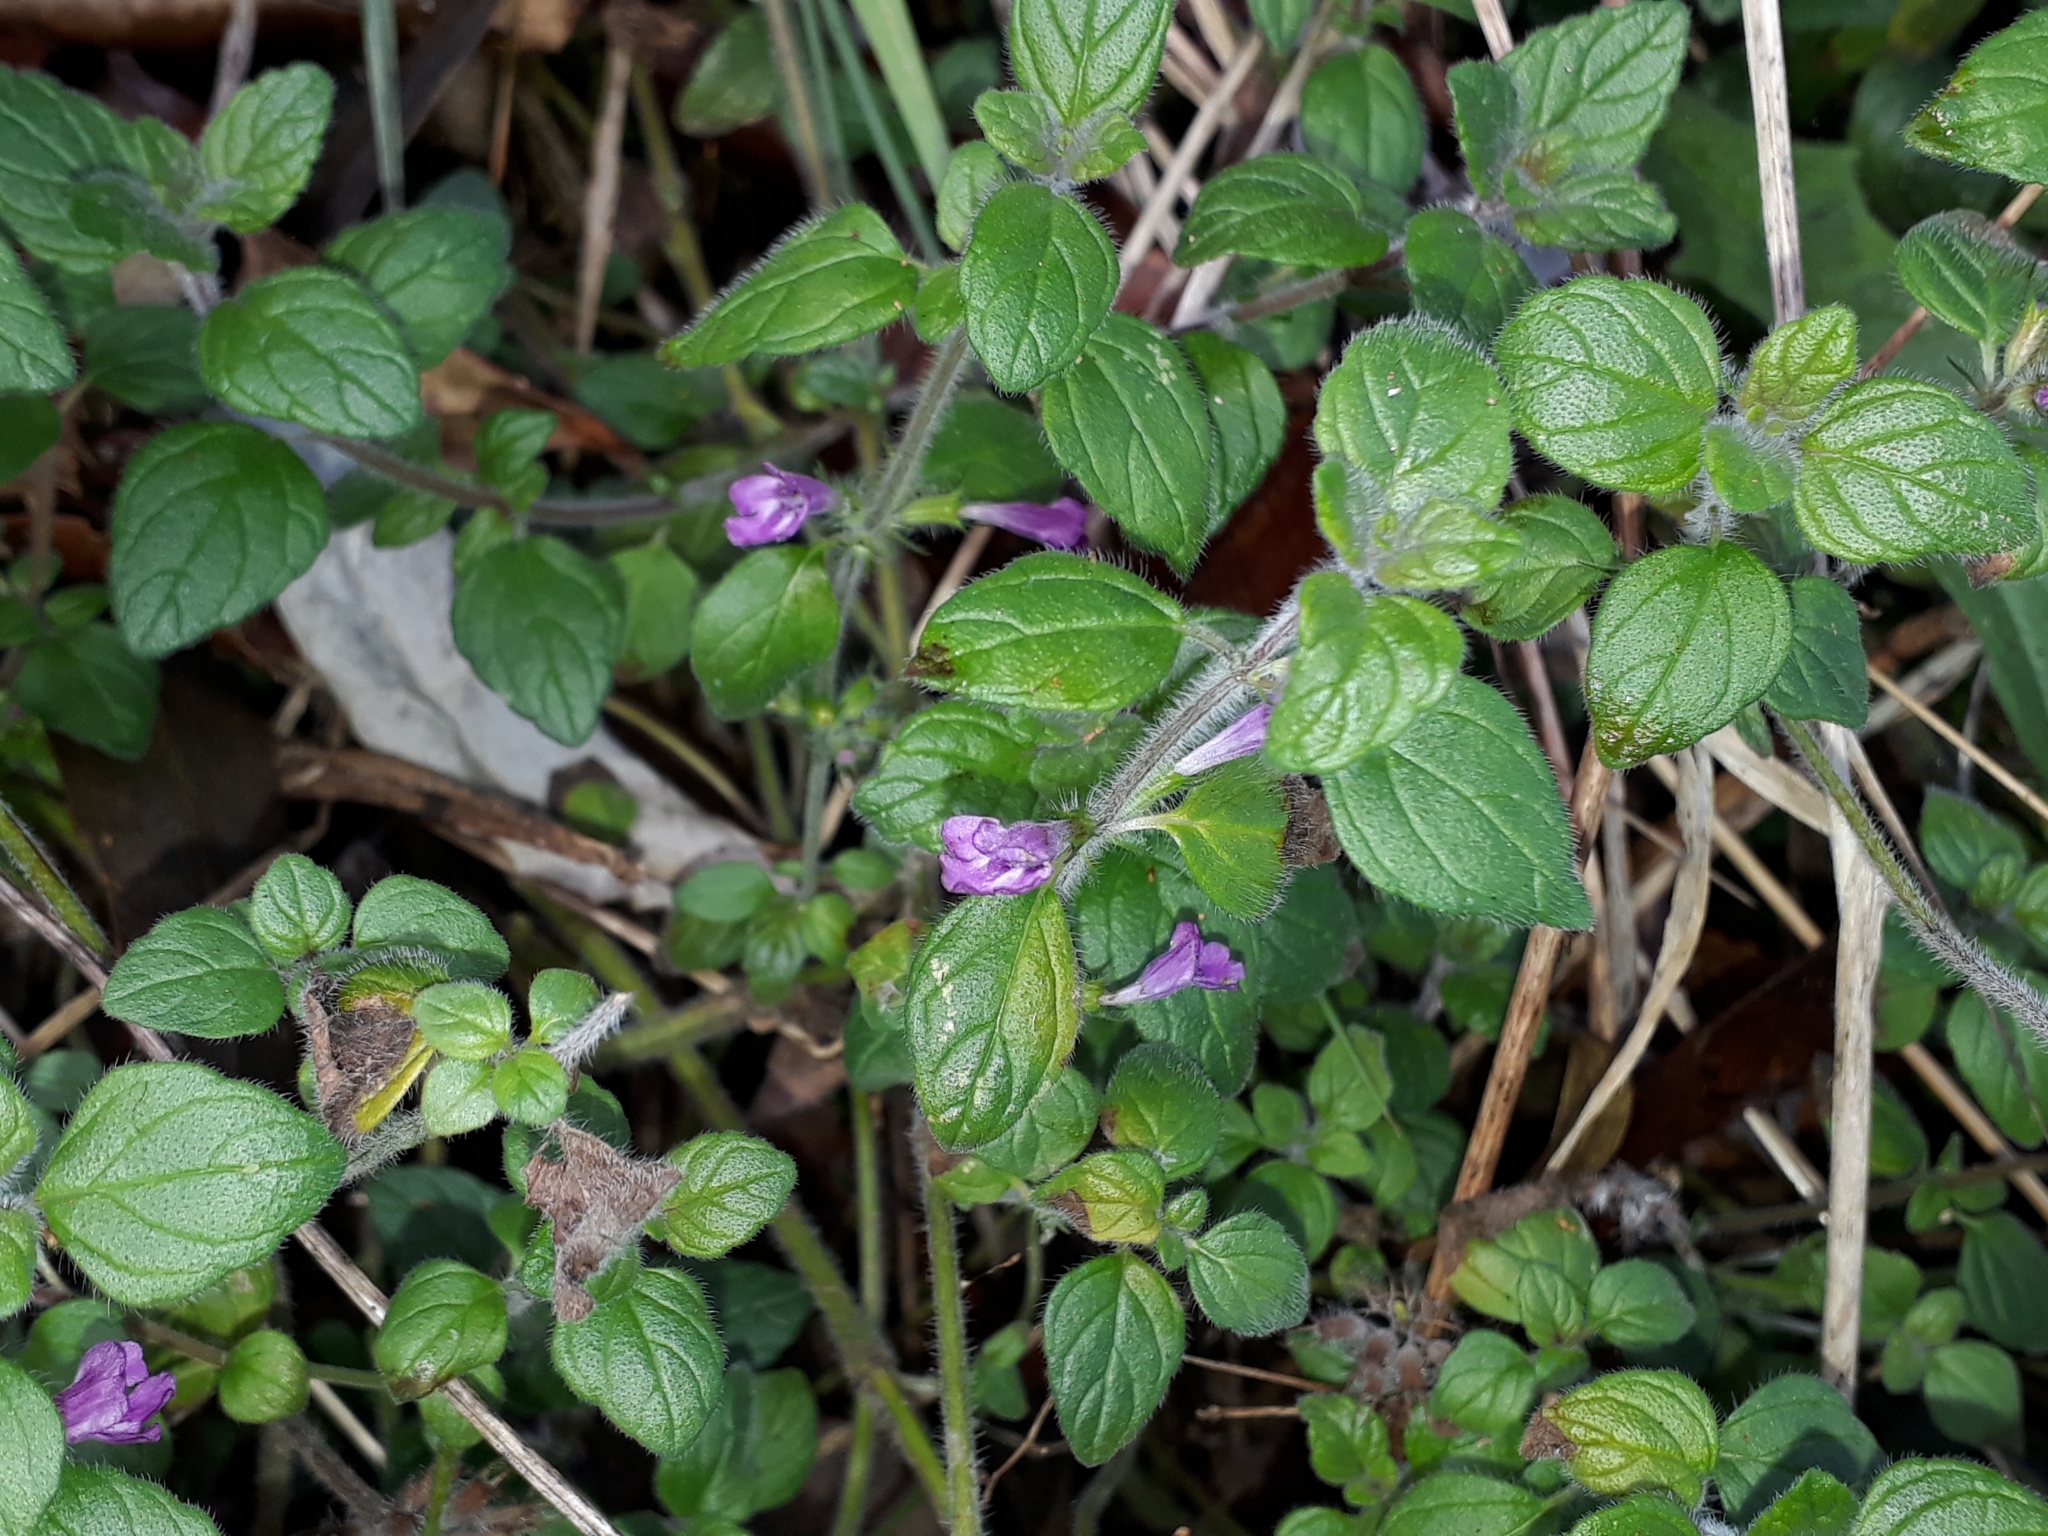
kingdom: Plantae
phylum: Tracheophyta
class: Magnoliopsida
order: Lamiales
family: Lamiaceae
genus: Clinopodium
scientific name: Clinopodium vulgare
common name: Wild basil
